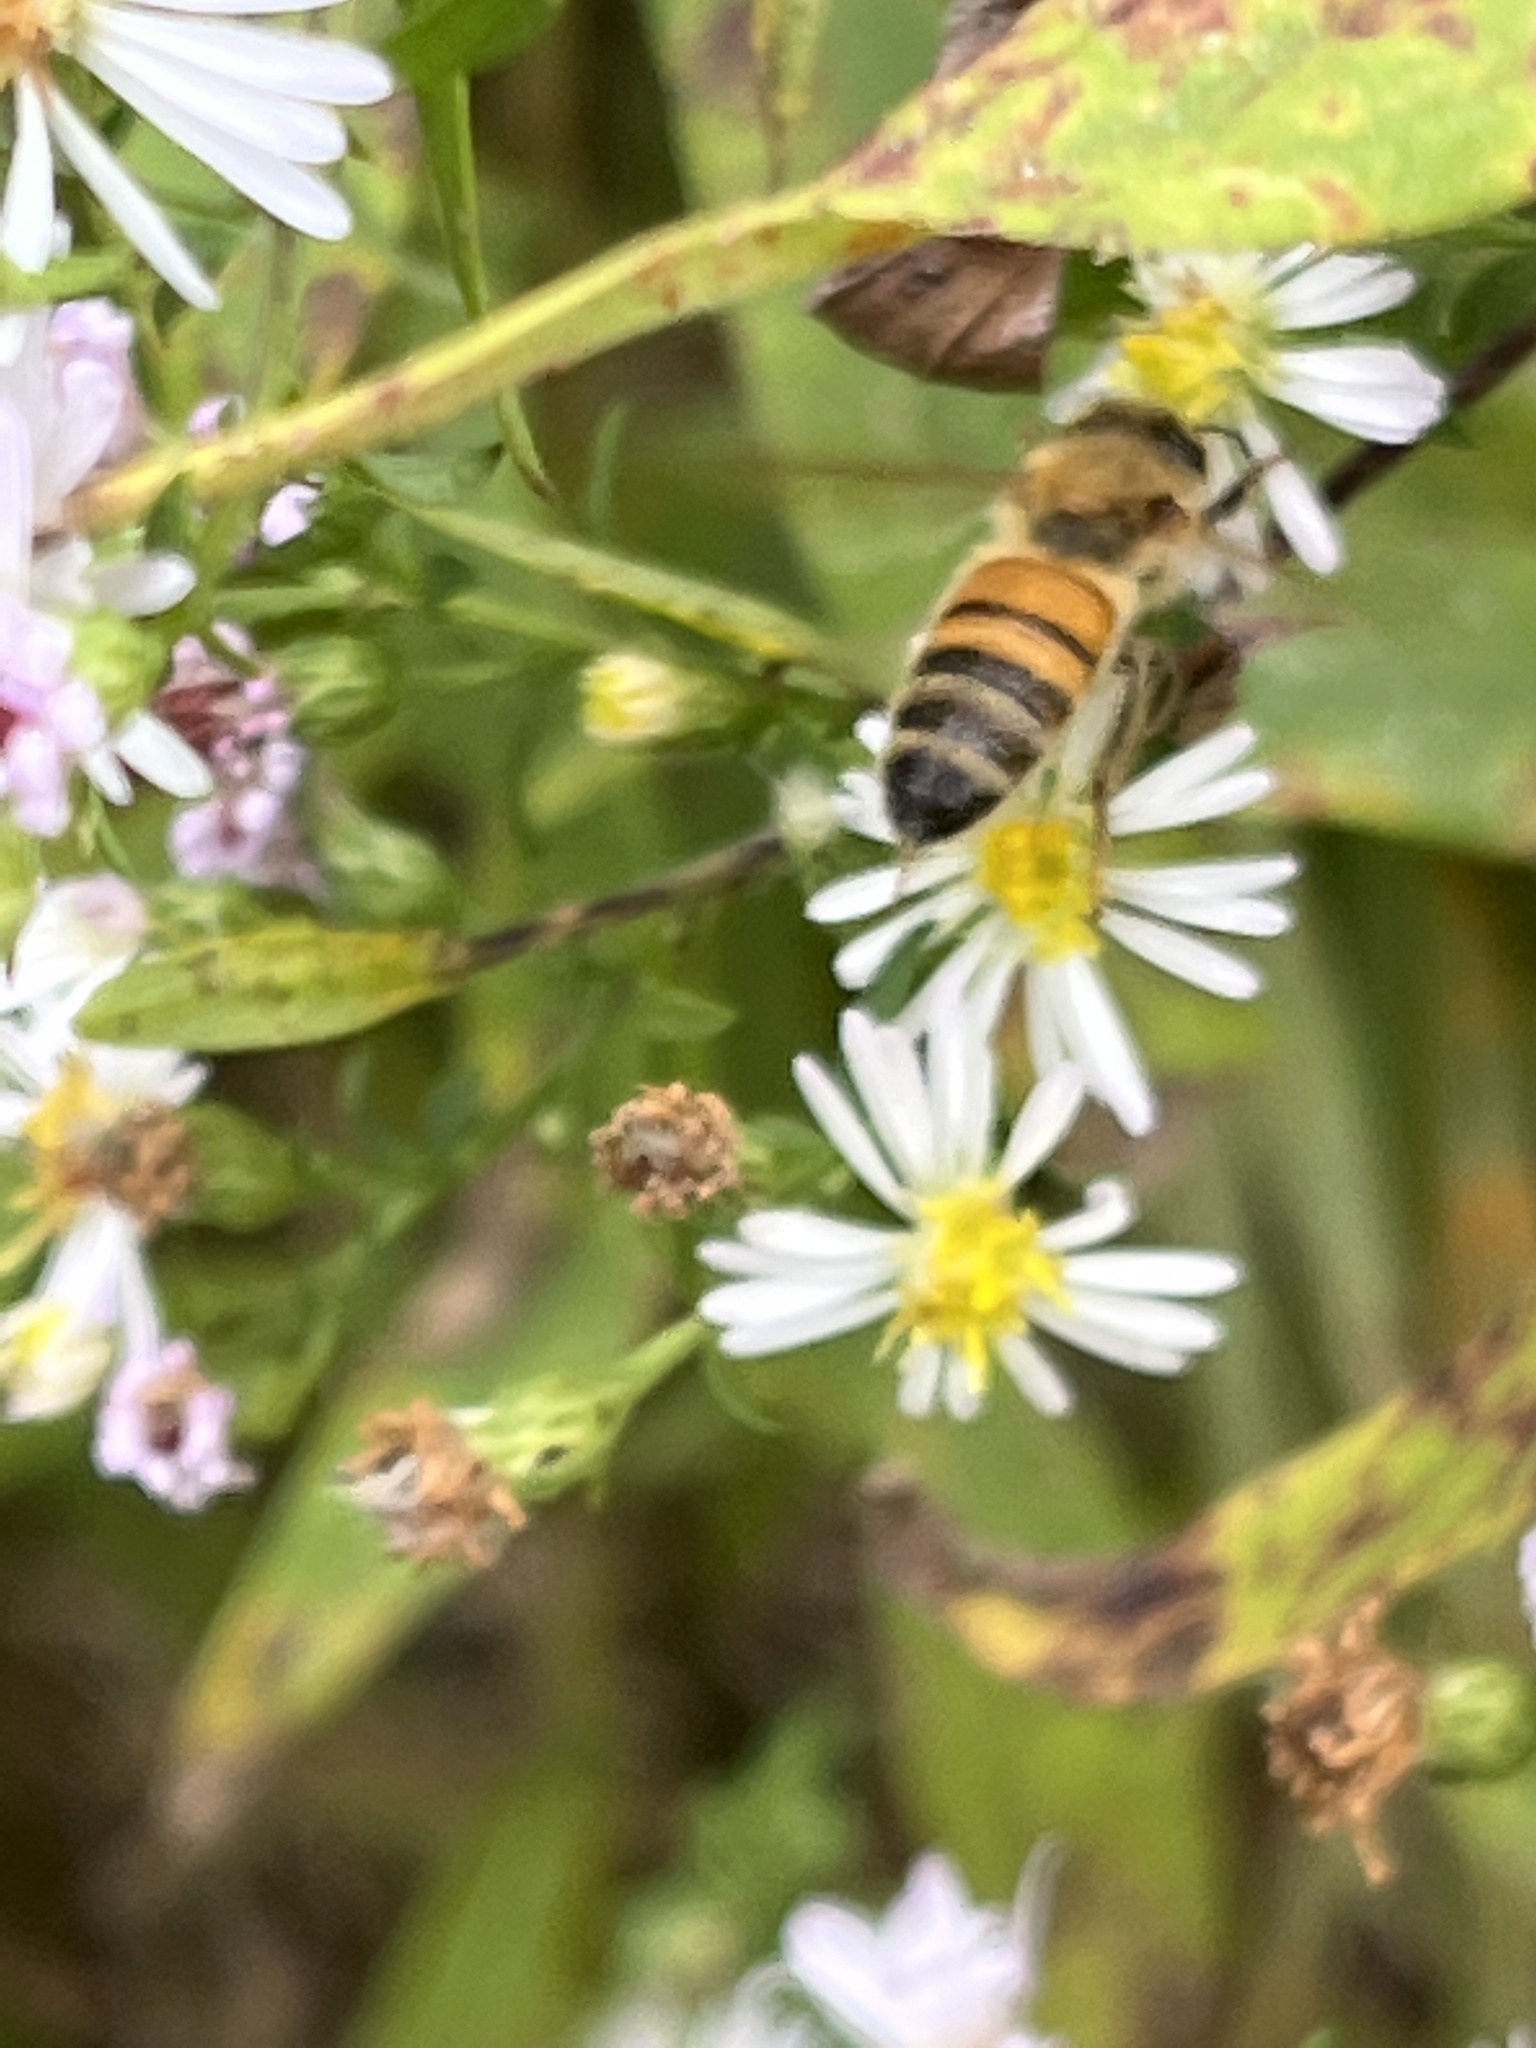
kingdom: Animalia
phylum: Arthropoda
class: Insecta
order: Hymenoptera
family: Apidae
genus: Apis
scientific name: Apis mellifera
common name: Honey bee
